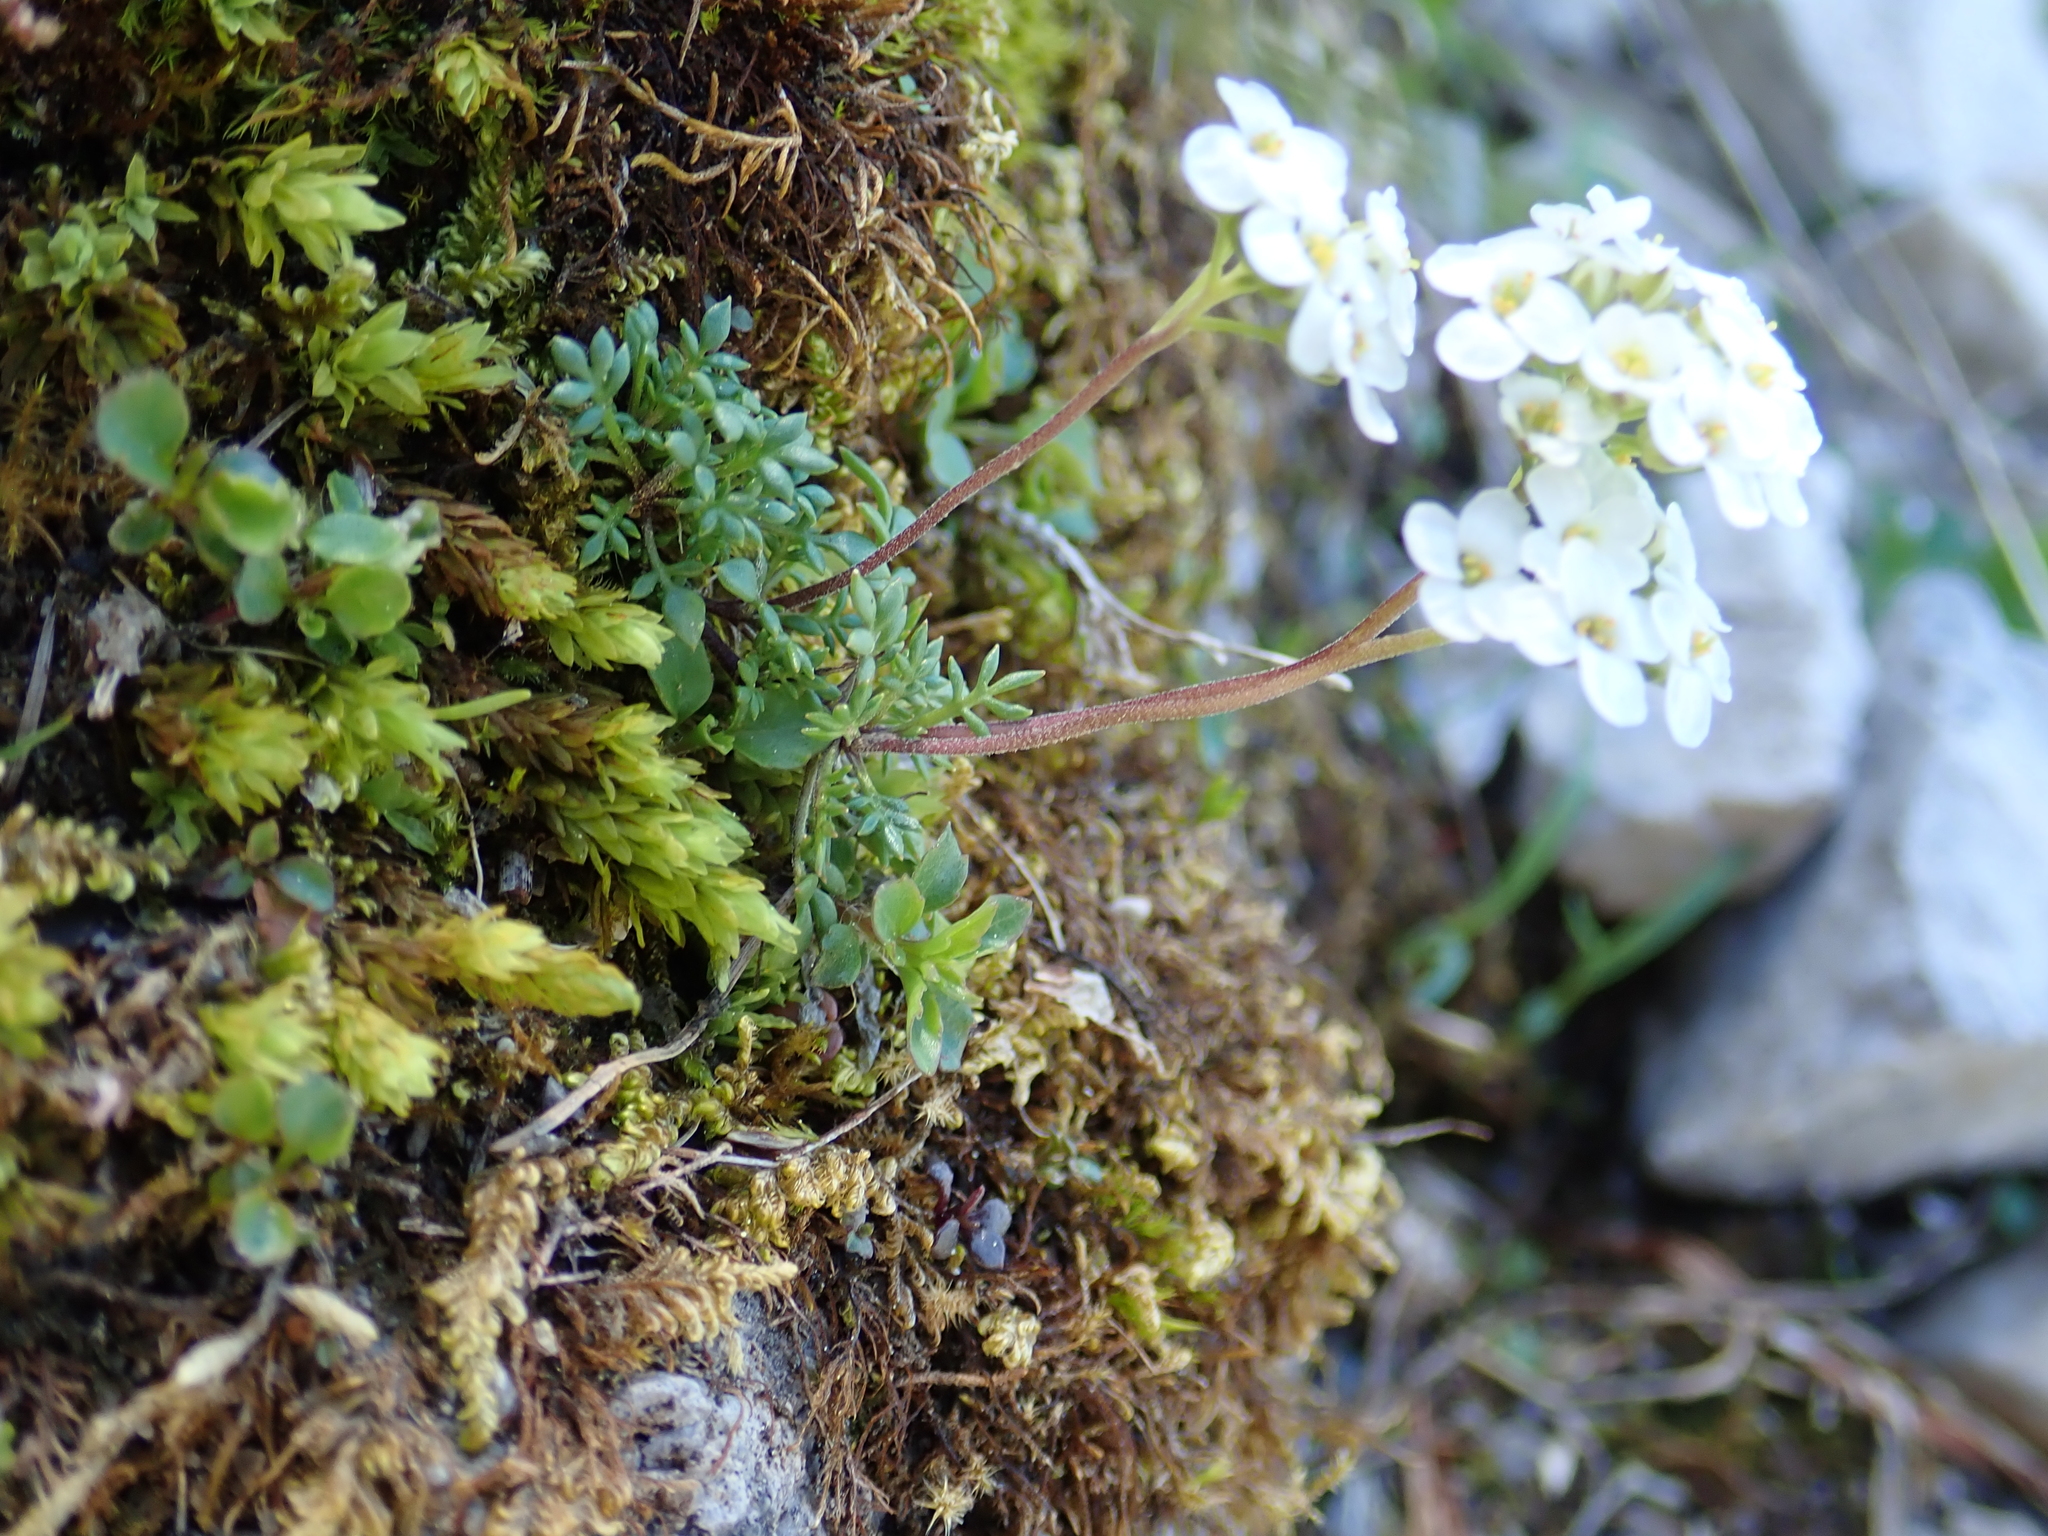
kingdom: Plantae
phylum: Tracheophyta
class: Magnoliopsida
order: Brassicales
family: Brassicaceae
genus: Hornungia
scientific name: Hornungia alpina
